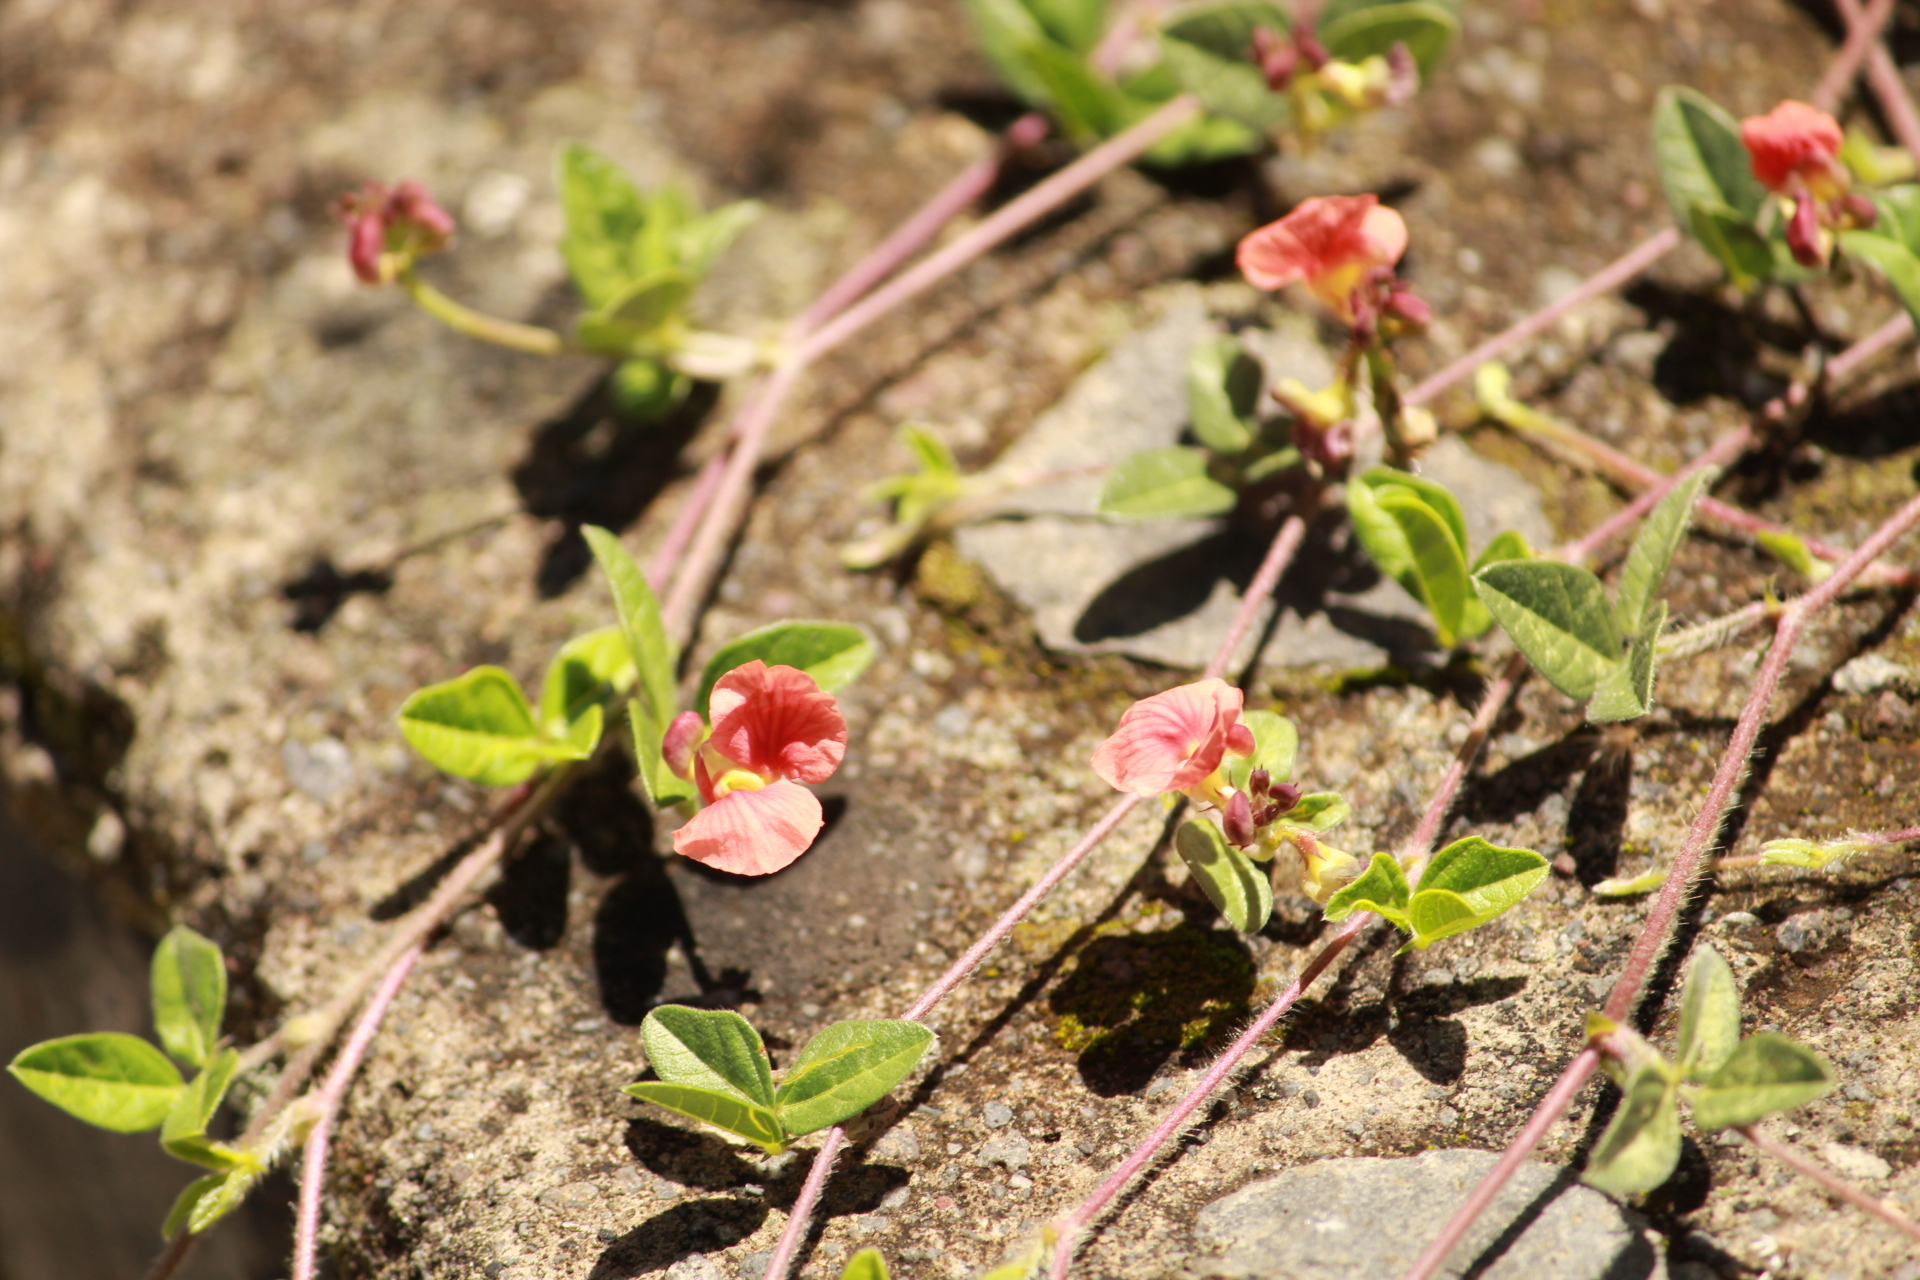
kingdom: Plantae
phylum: Tracheophyta
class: Magnoliopsida
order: Fabales
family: Fabaceae
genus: Macroptilium
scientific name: Macroptilium gibbosifolium
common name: Variableleaf bushbean
